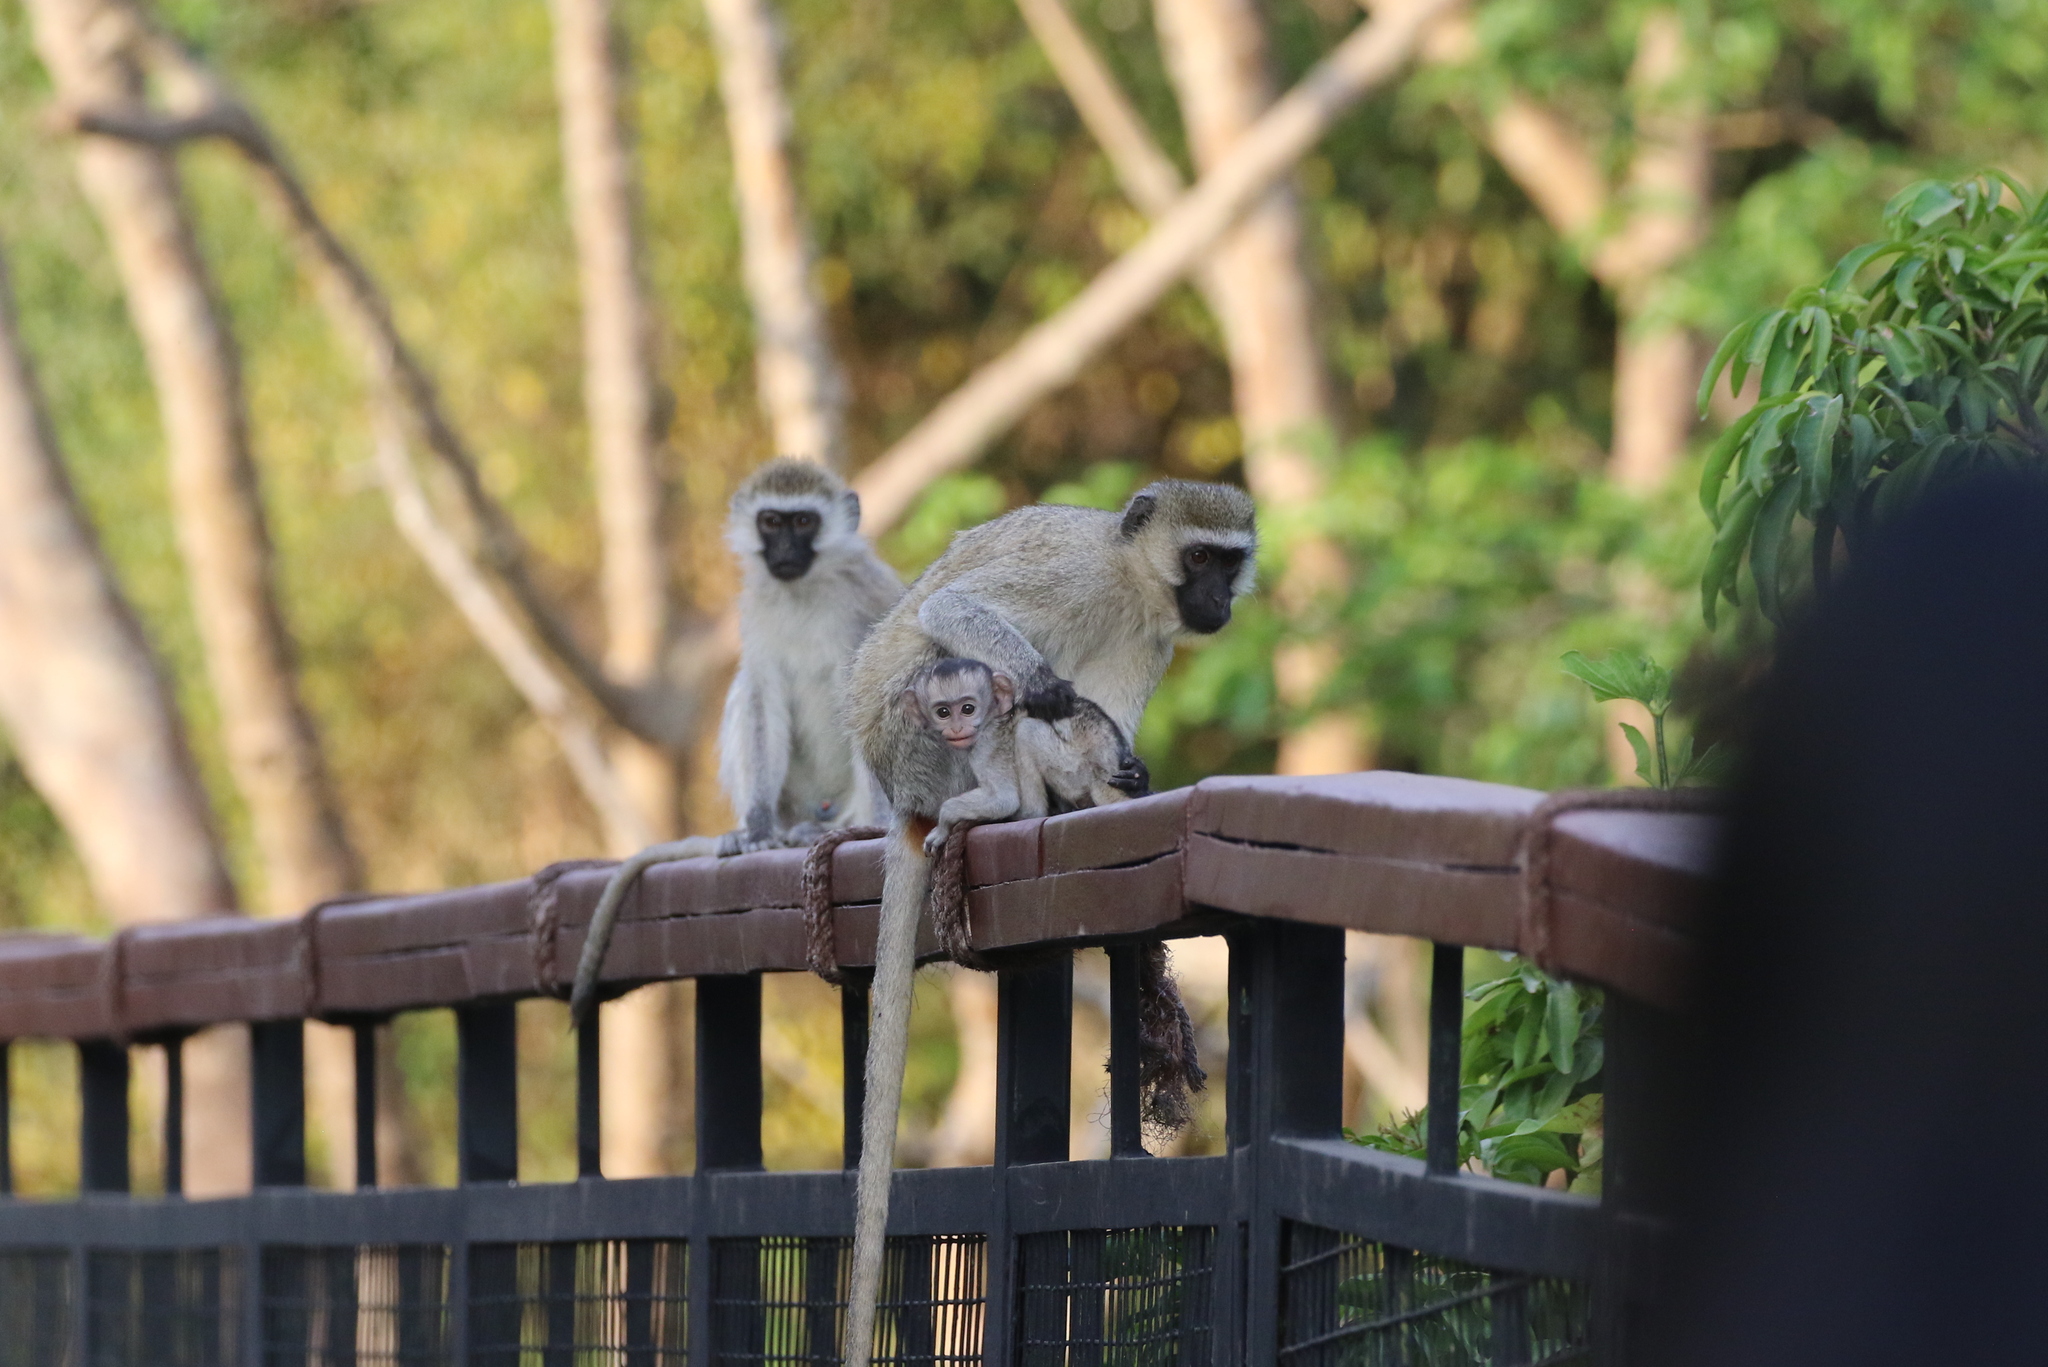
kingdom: Animalia
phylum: Chordata
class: Mammalia
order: Primates
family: Cercopithecidae
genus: Chlorocebus
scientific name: Chlorocebus pygerythrus
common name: Vervet monkey
